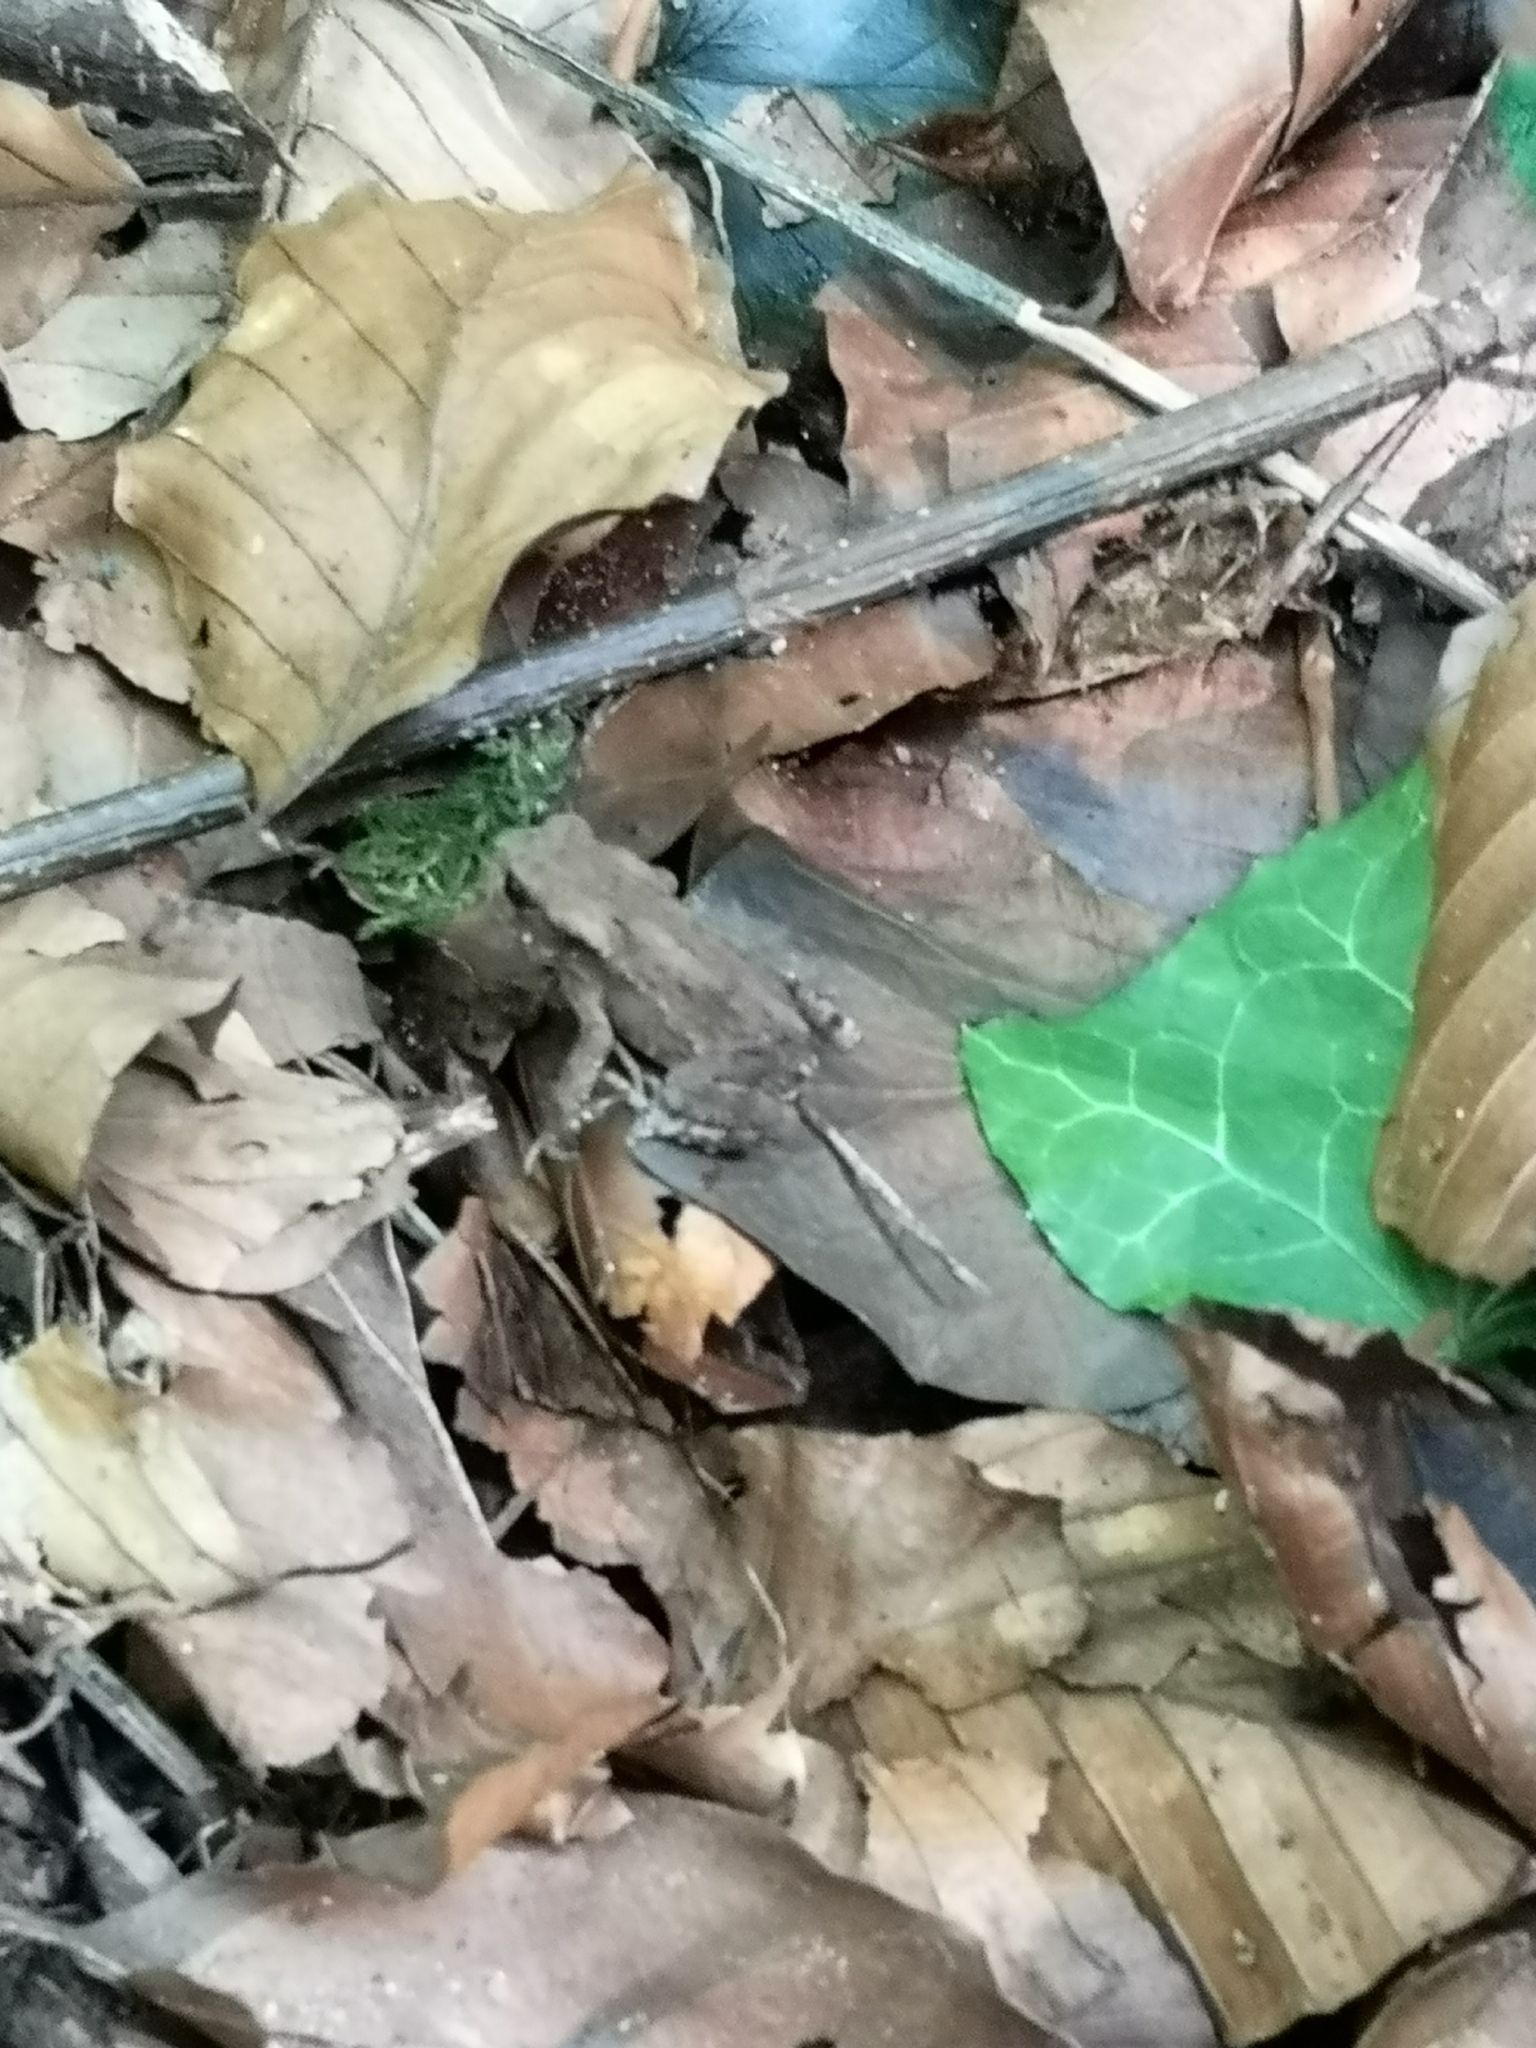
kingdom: Animalia
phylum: Chordata
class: Amphibia
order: Anura
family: Bufonidae
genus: Bufo
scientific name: Bufo bufo
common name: Common toad
